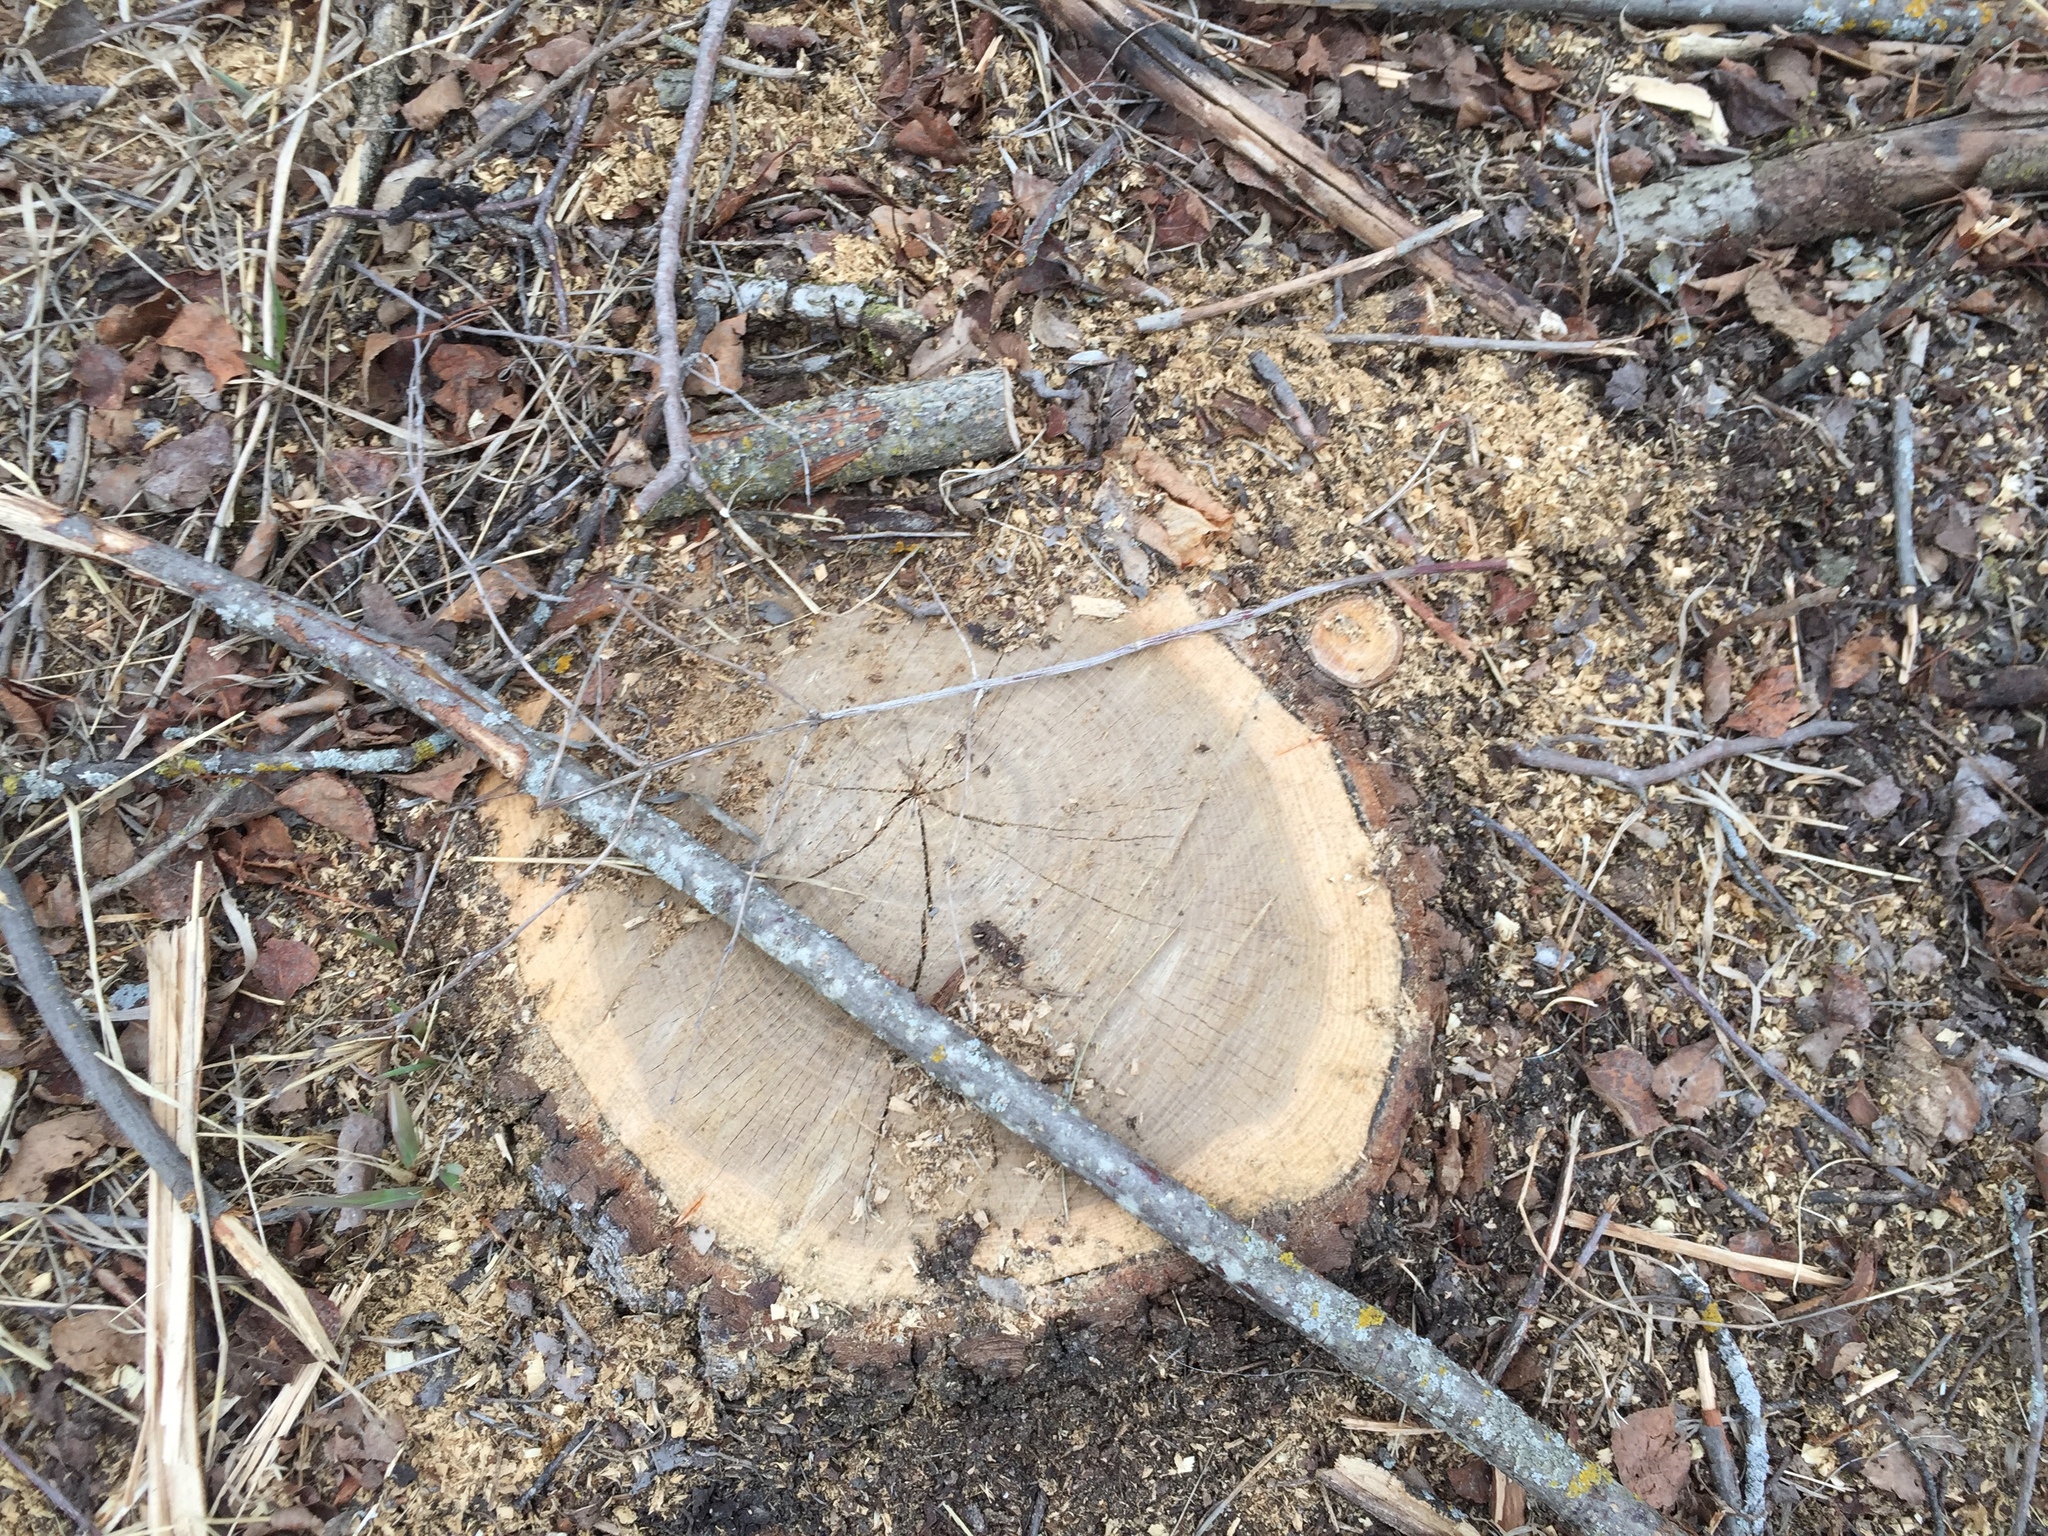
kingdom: Plantae
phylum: Tracheophyta
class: Magnoliopsida
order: Malpighiales
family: Salicaceae
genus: Populus
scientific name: Populus tremuloides
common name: Quaking aspen
